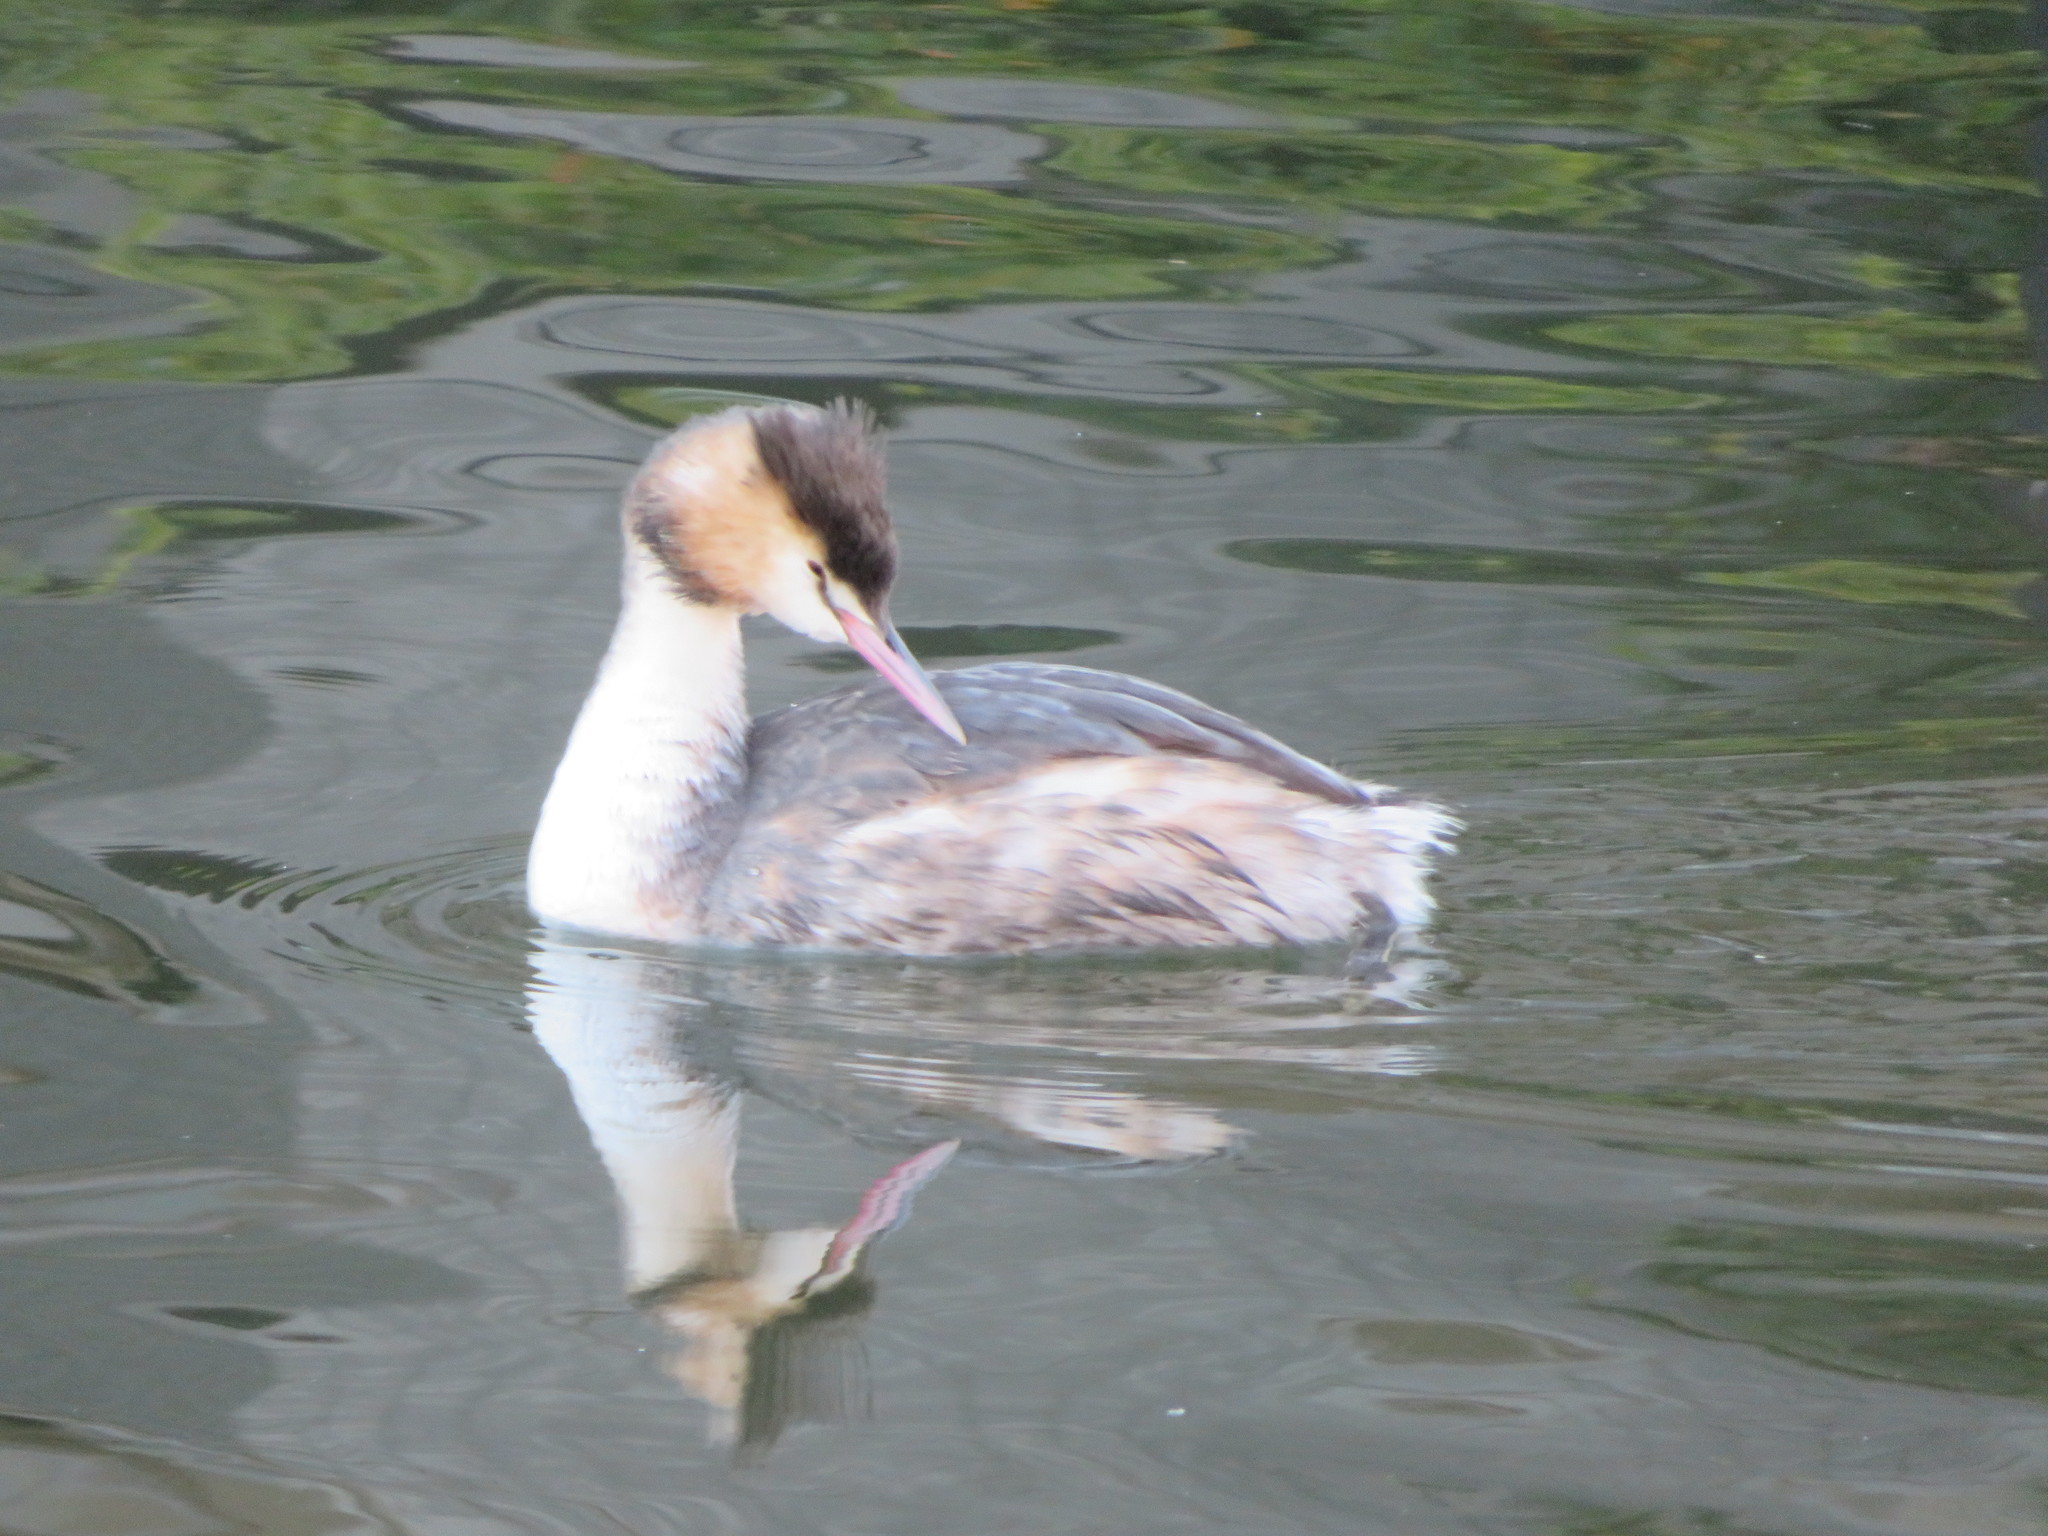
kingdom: Animalia
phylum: Chordata
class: Aves
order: Podicipediformes
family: Podicipedidae
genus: Podiceps
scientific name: Podiceps cristatus
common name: Great crested grebe
